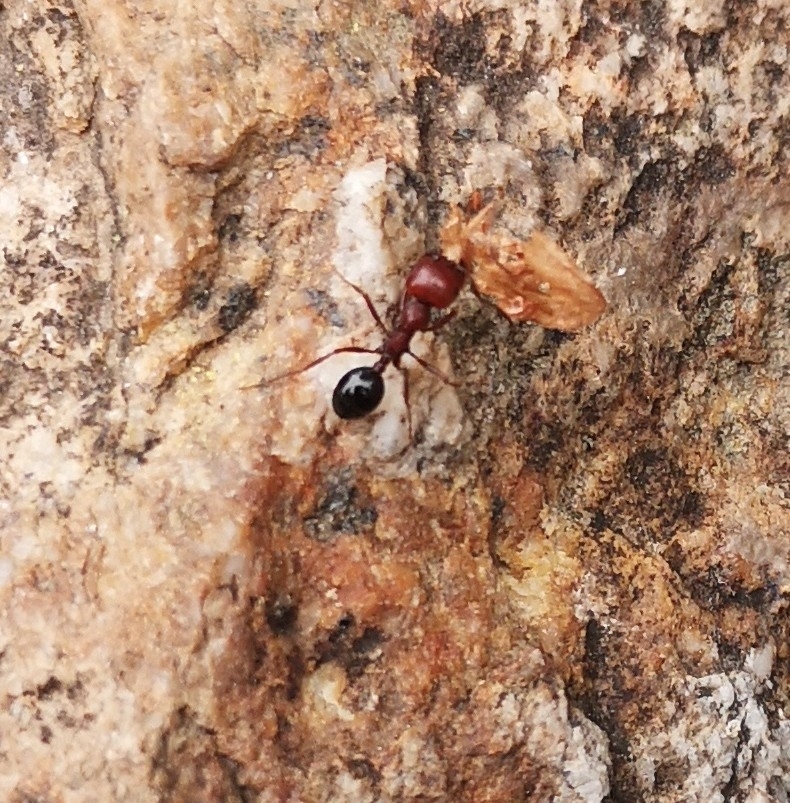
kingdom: Animalia
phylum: Arthropoda
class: Insecta
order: Hymenoptera
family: Formicidae
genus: Messor
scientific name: Messor minor
